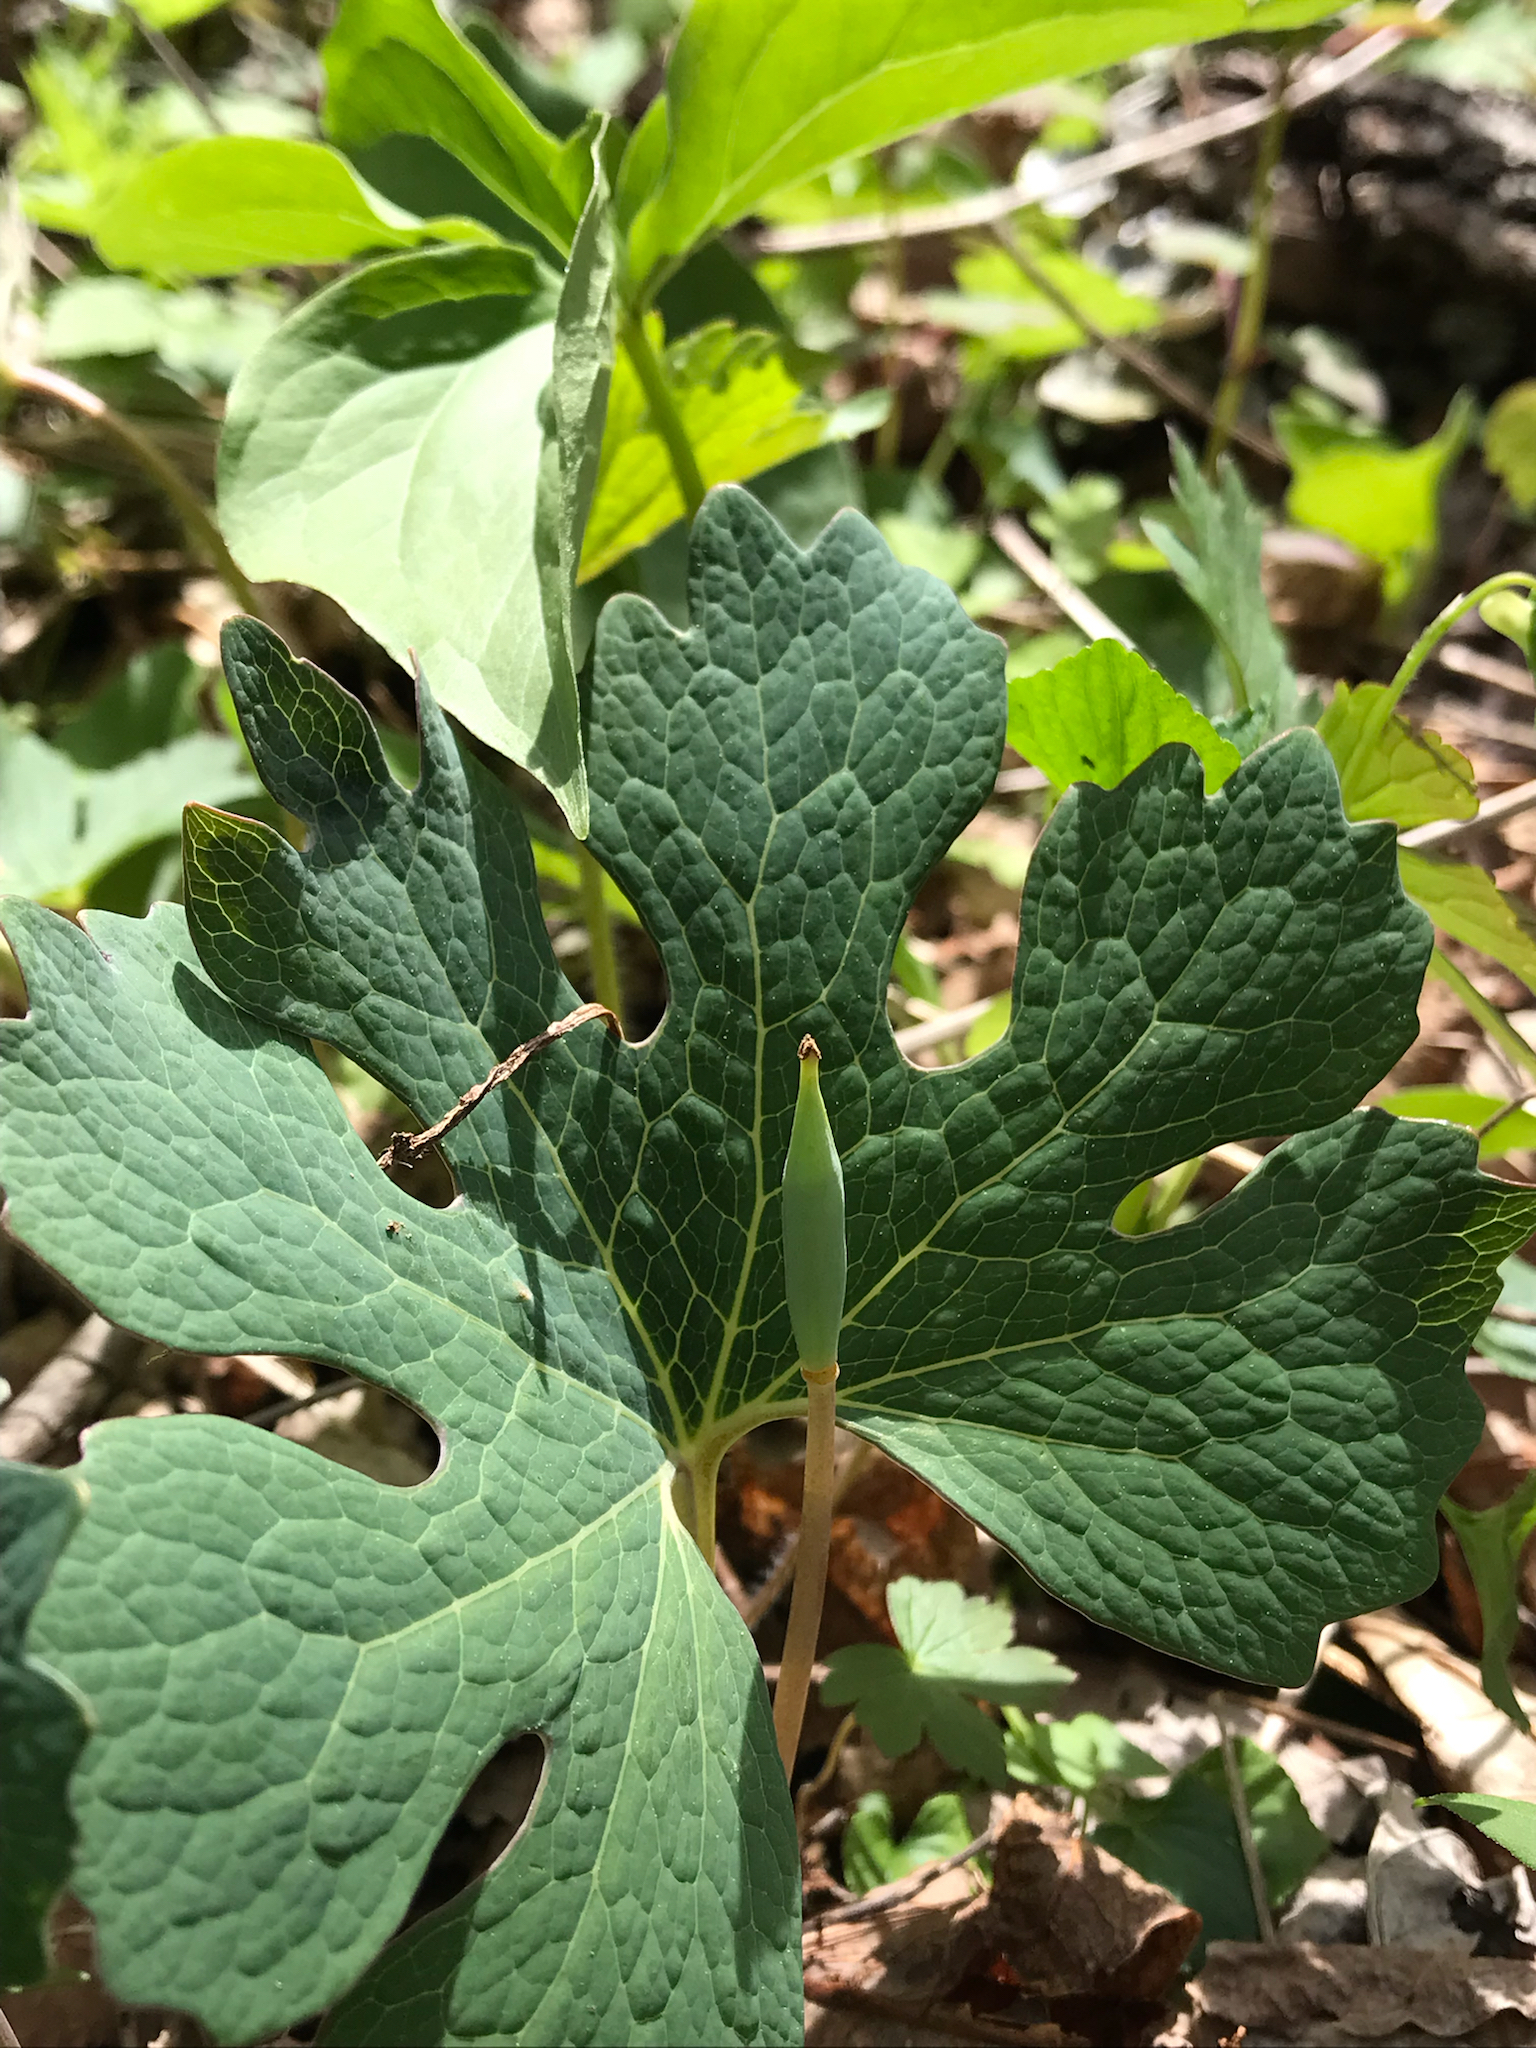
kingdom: Plantae
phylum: Tracheophyta
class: Magnoliopsida
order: Ranunculales
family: Papaveraceae
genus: Sanguinaria
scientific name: Sanguinaria canadensis
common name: Bloodroot
